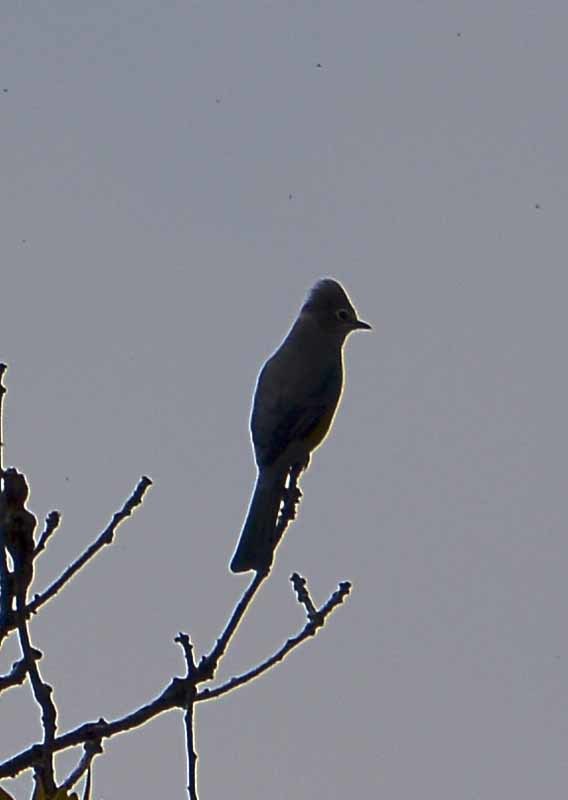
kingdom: Animalia
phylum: Chordata
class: Aves
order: Passeriformes
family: Ptilogonatidae
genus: Ptilogonys
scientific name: Ptilogonys cinereus
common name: Gray silky-flycatcher
